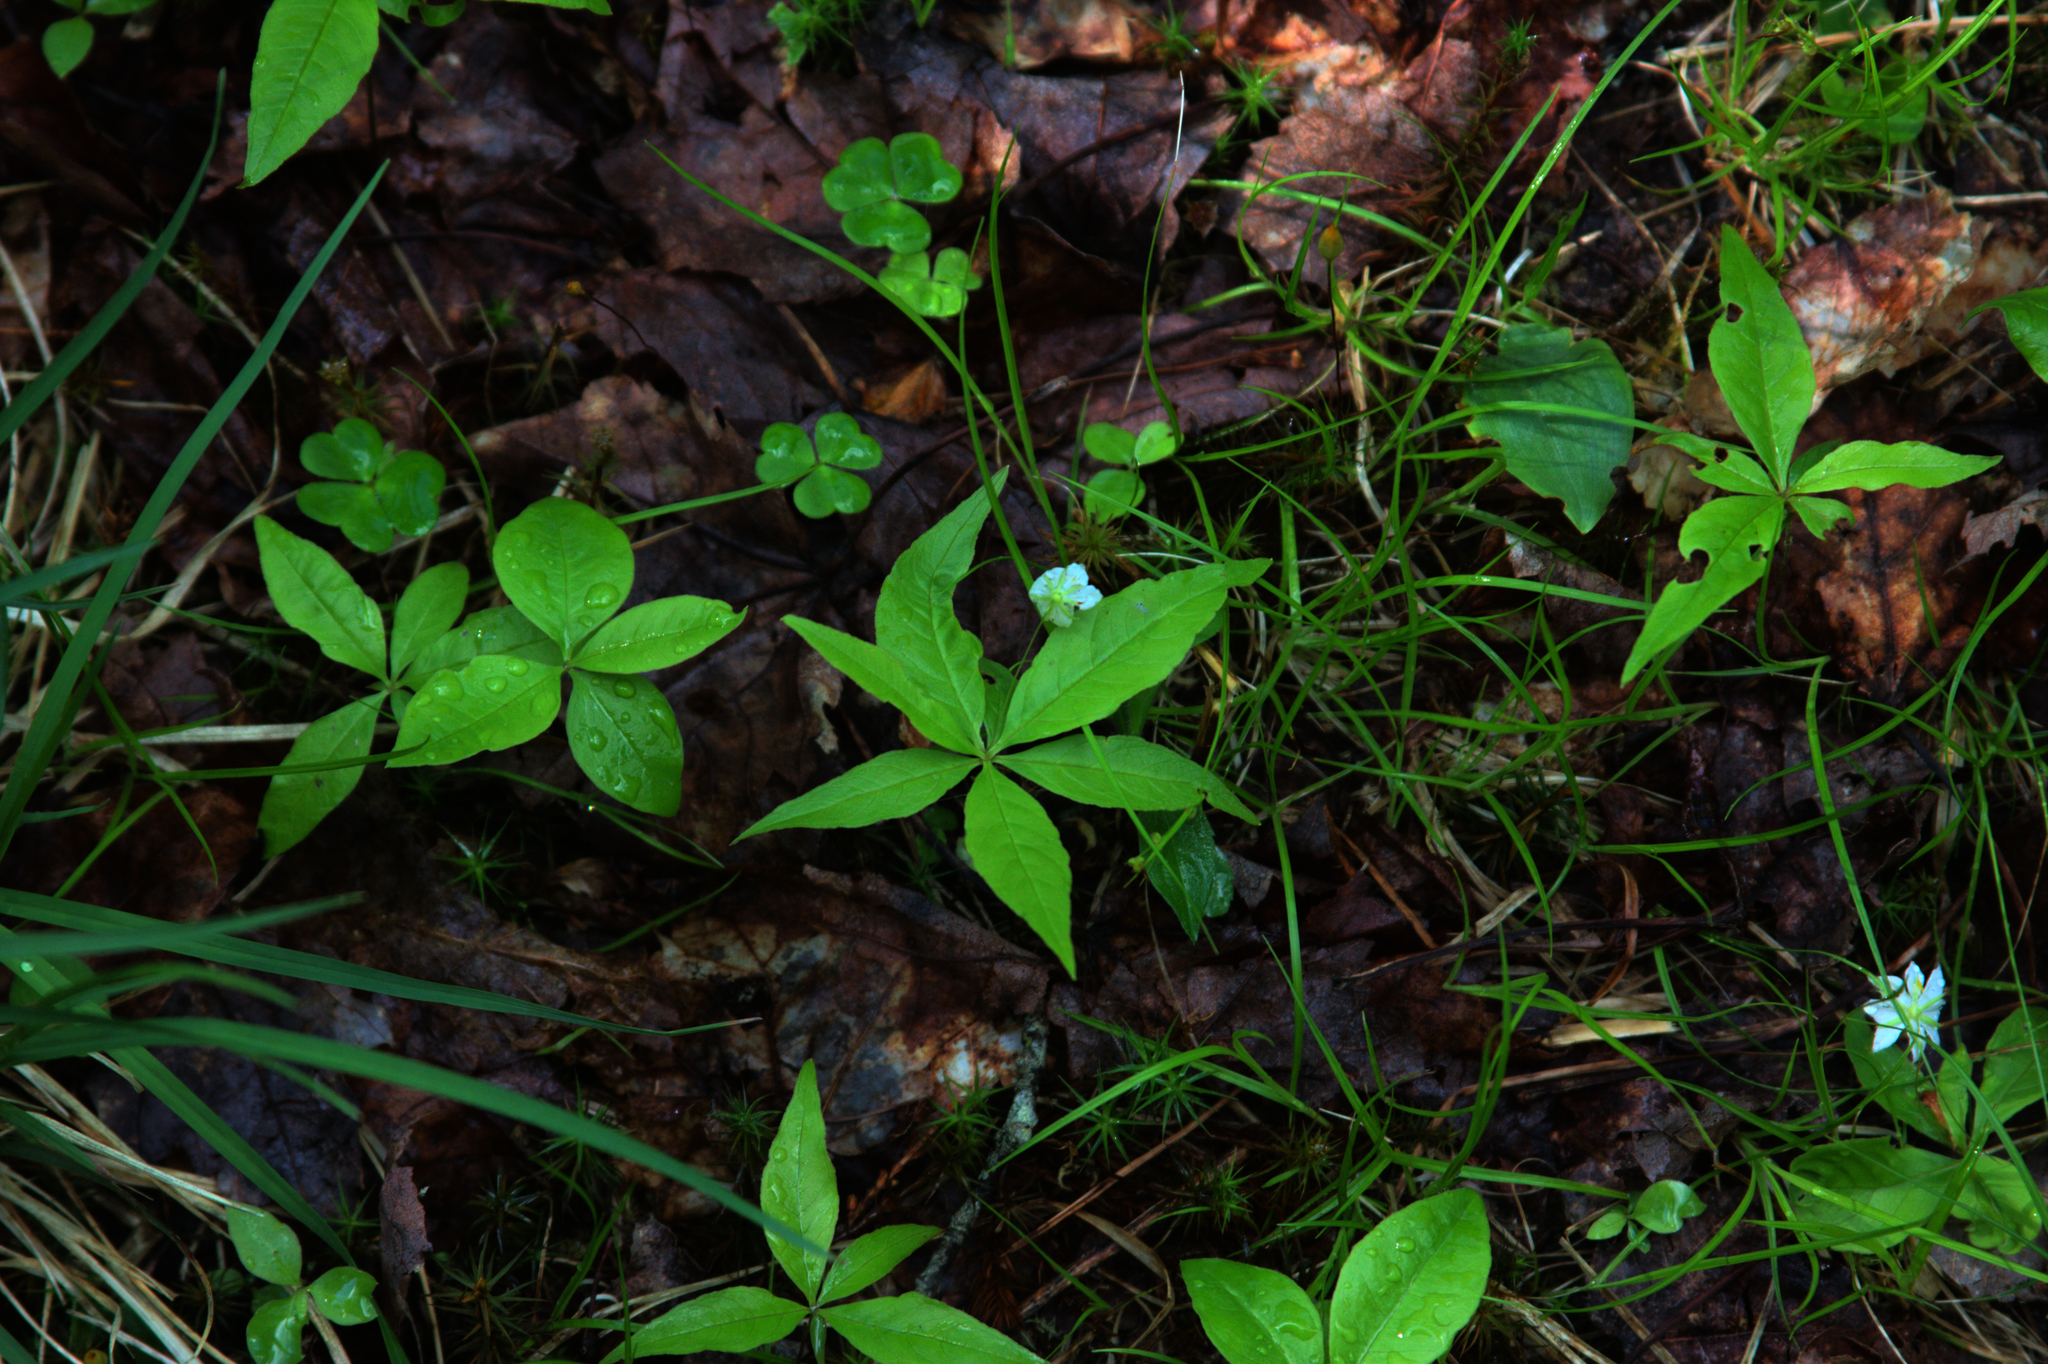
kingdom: Plantae
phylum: Tracheophyta
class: Magnoliopsida
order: Ericales
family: Primulaceae
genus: Lysimachia
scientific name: Lysimachia borealis
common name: American starflower
